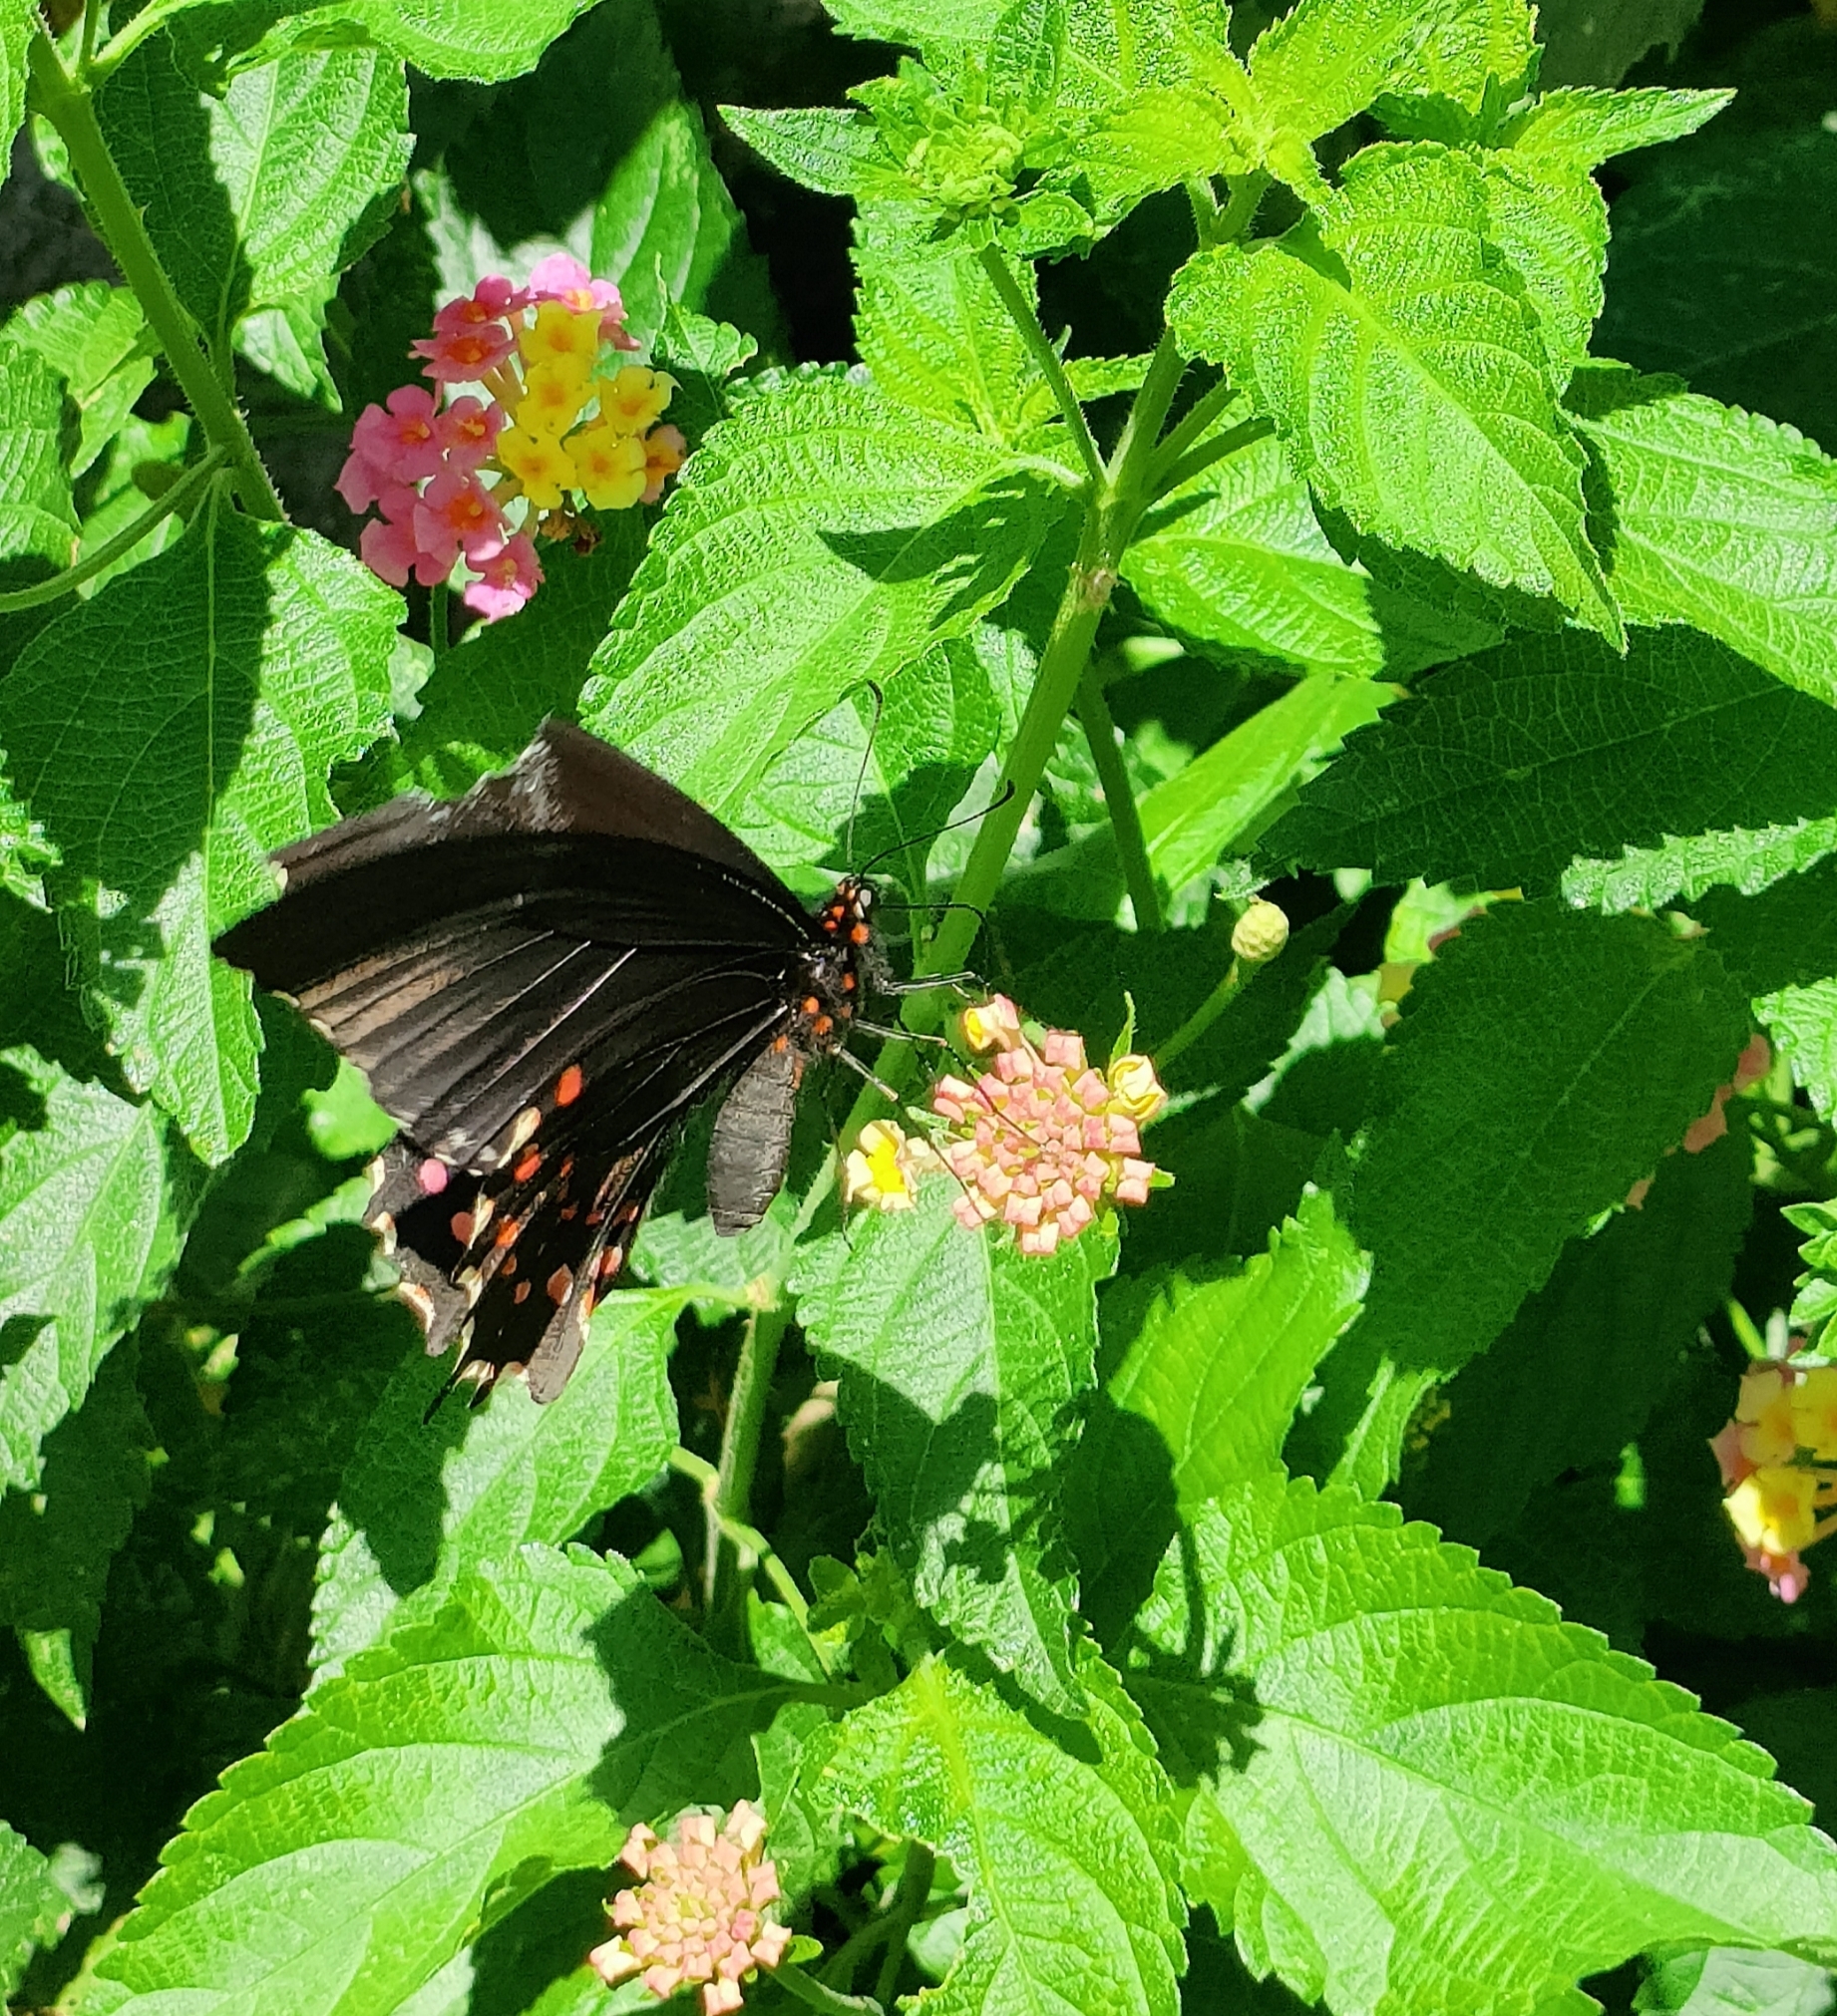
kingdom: Animalia
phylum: Arthropoda
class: Insecta
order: Lepidoptera
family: Papilionidae
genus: Heraclides
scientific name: Heraclides rogeri
